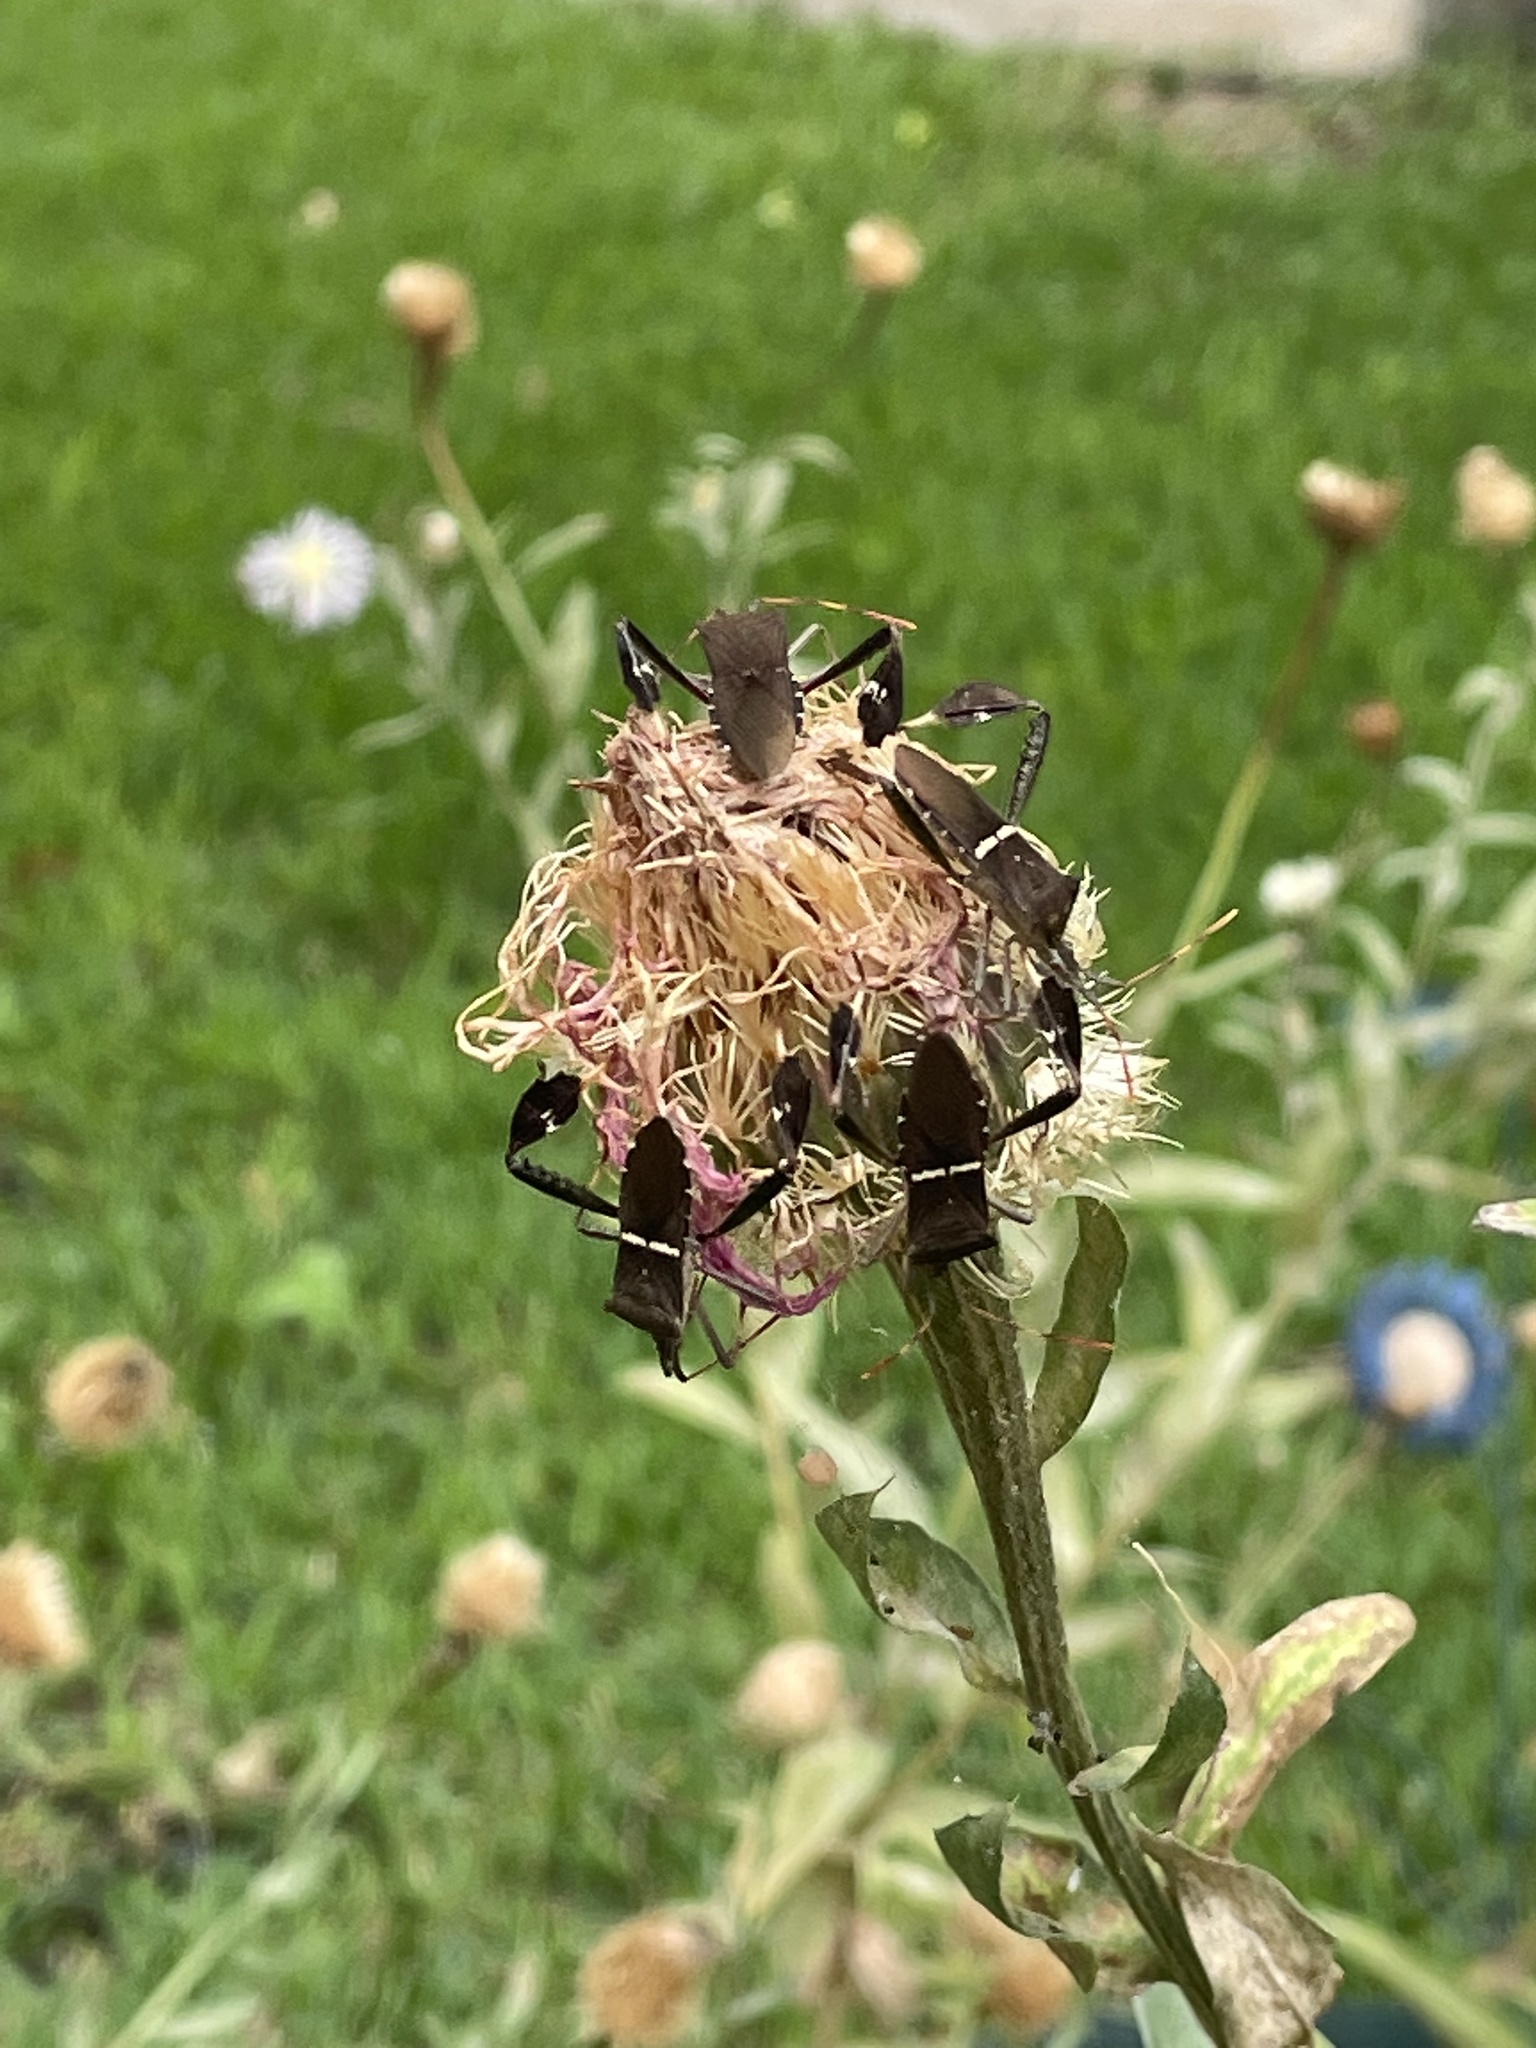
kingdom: Animalia
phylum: Arthropoda
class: Insecta
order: Hemiptera
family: Coreidae
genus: Leptoglossus
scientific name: Leptoglossus phyllopus
